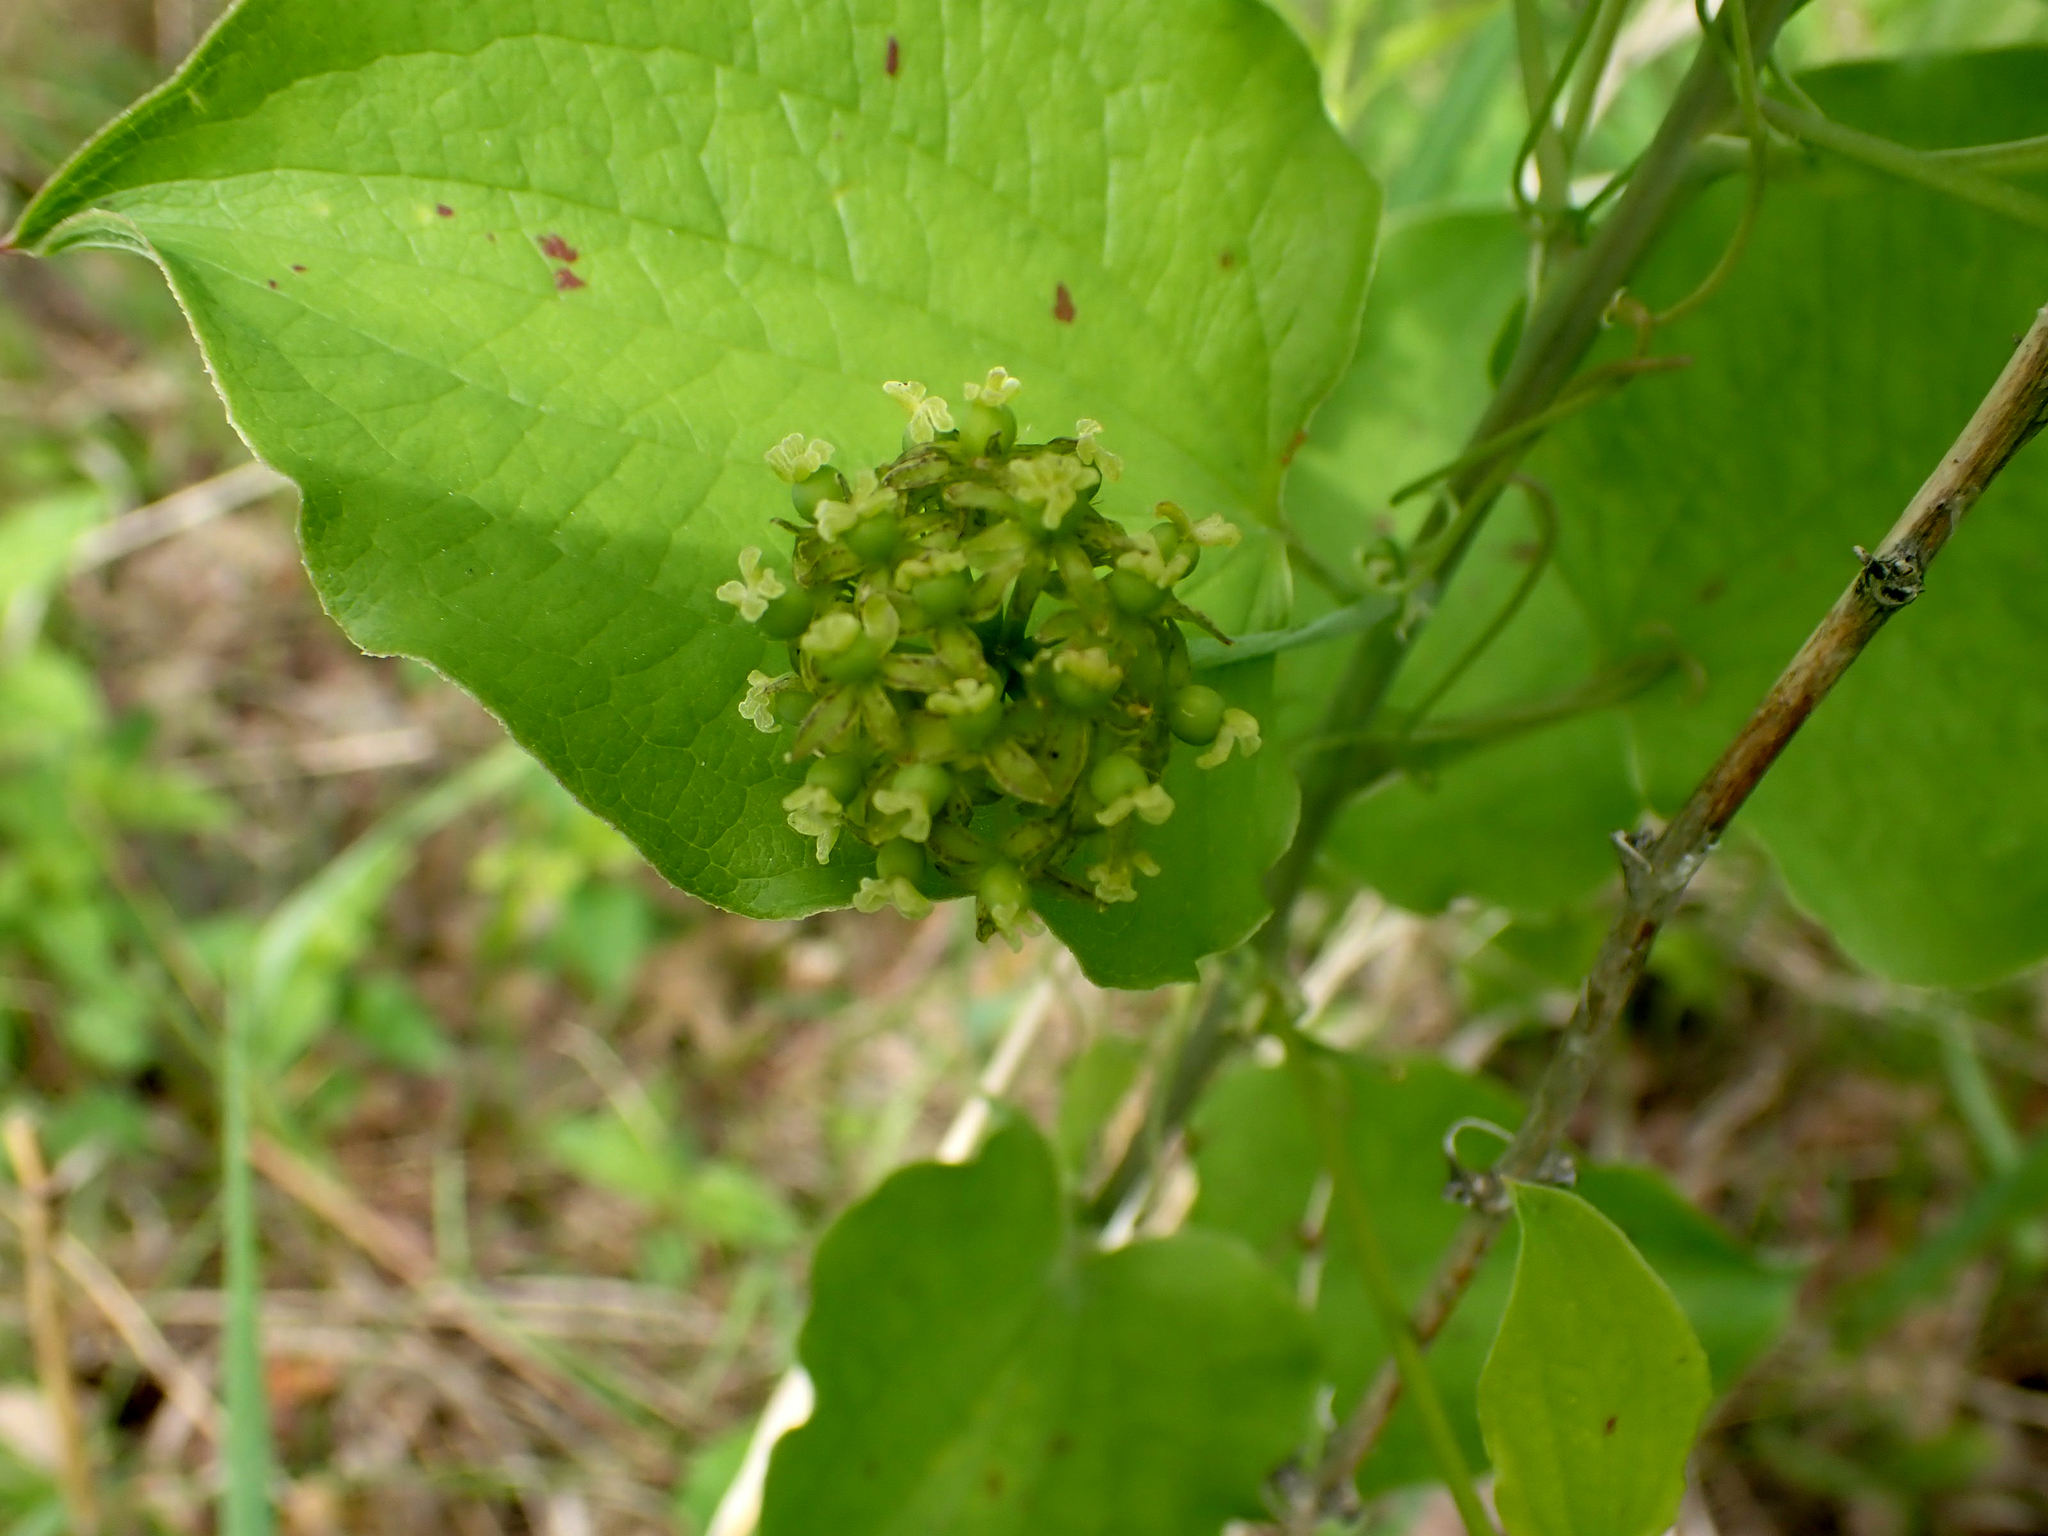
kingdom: Plantae
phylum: Tracheophyta
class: Liliopsida
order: Liliales
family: Smilacaceae
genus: Smilax
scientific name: Smilax lasioneura
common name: Blue ridge carrionflower
